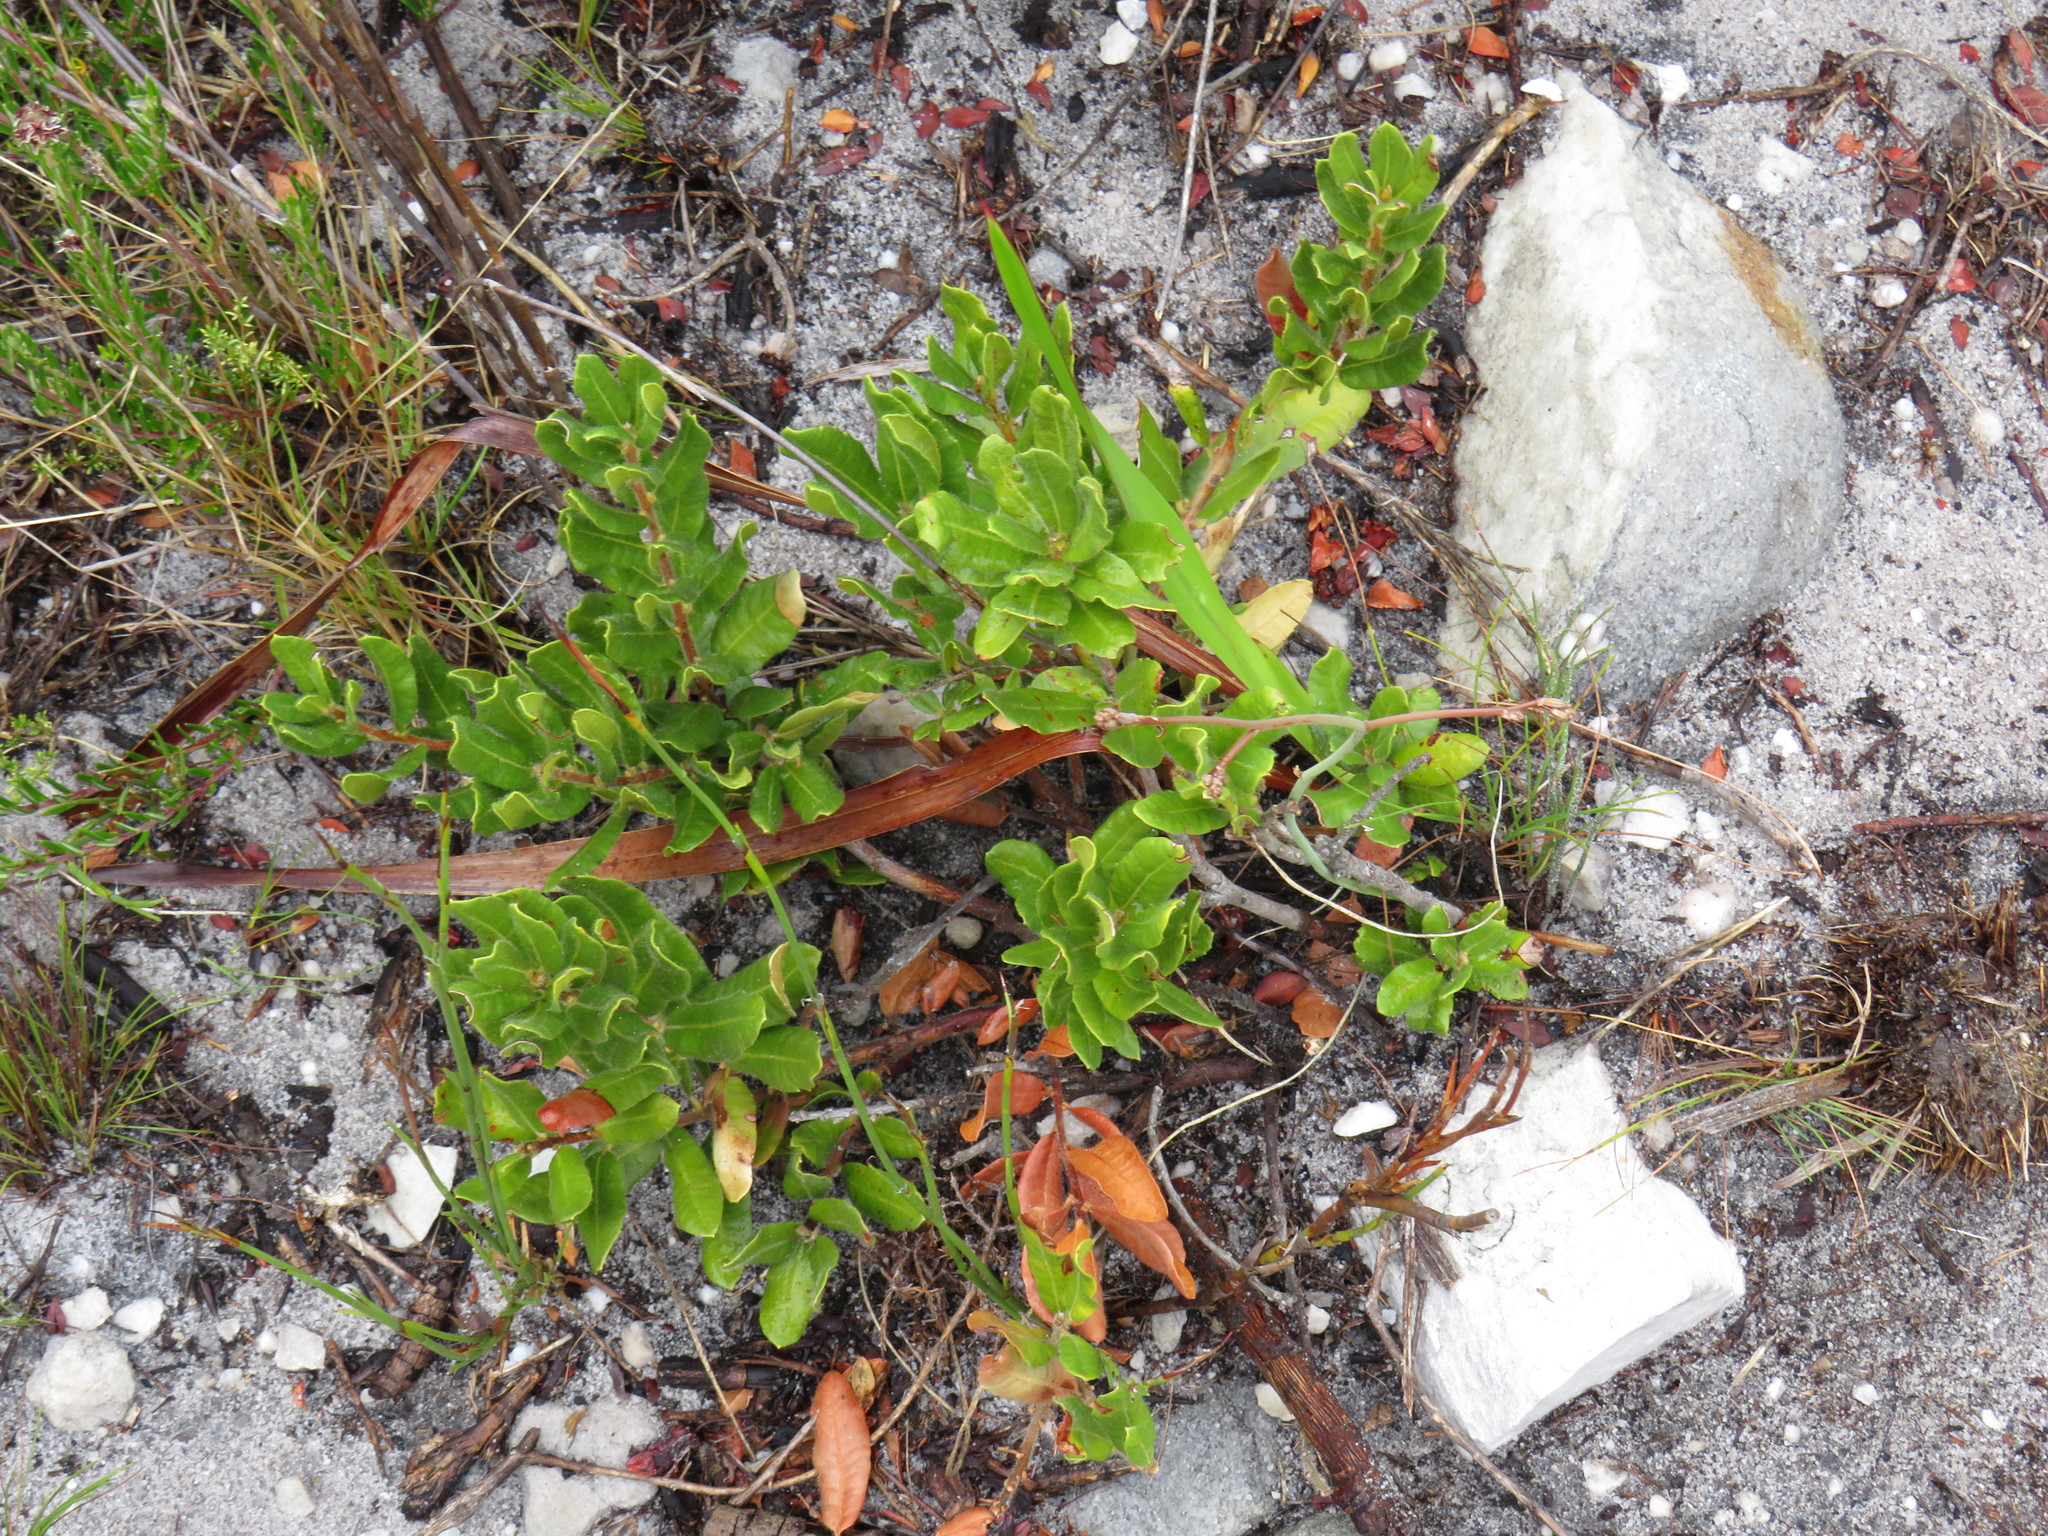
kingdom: Plantae
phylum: Tracheophyta
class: Magnoliopsida
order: Fagales
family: Myricaceae
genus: Morella
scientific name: Morella kraussiana
